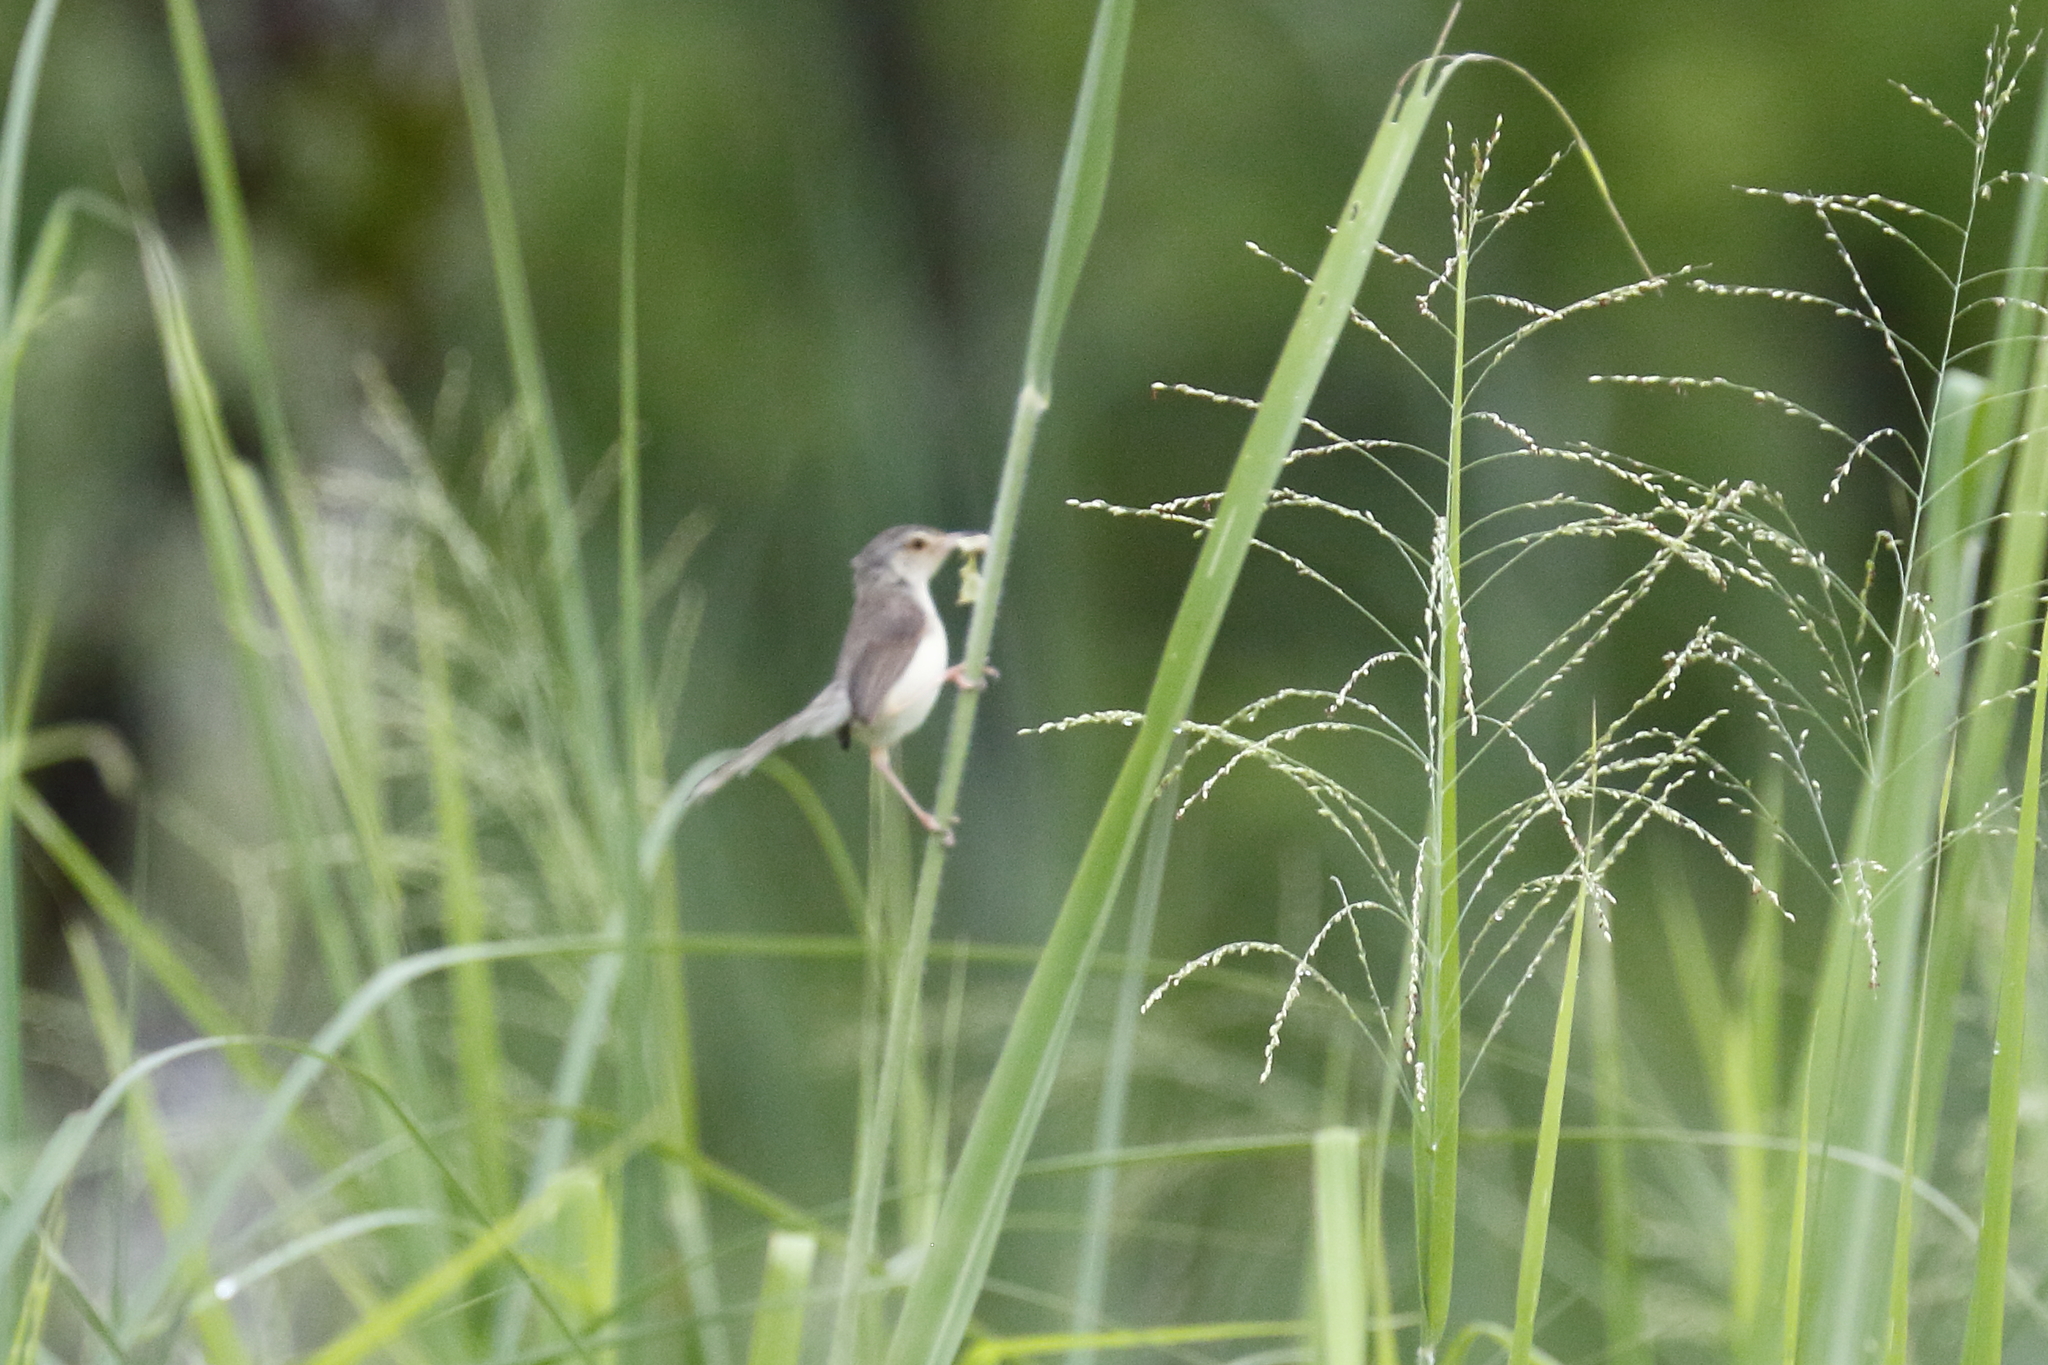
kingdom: Animalia
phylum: Chordata
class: Aves
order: Passeriformes
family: Cisticolidae
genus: Prinia
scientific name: Prinia inornata
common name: Plain prinia
